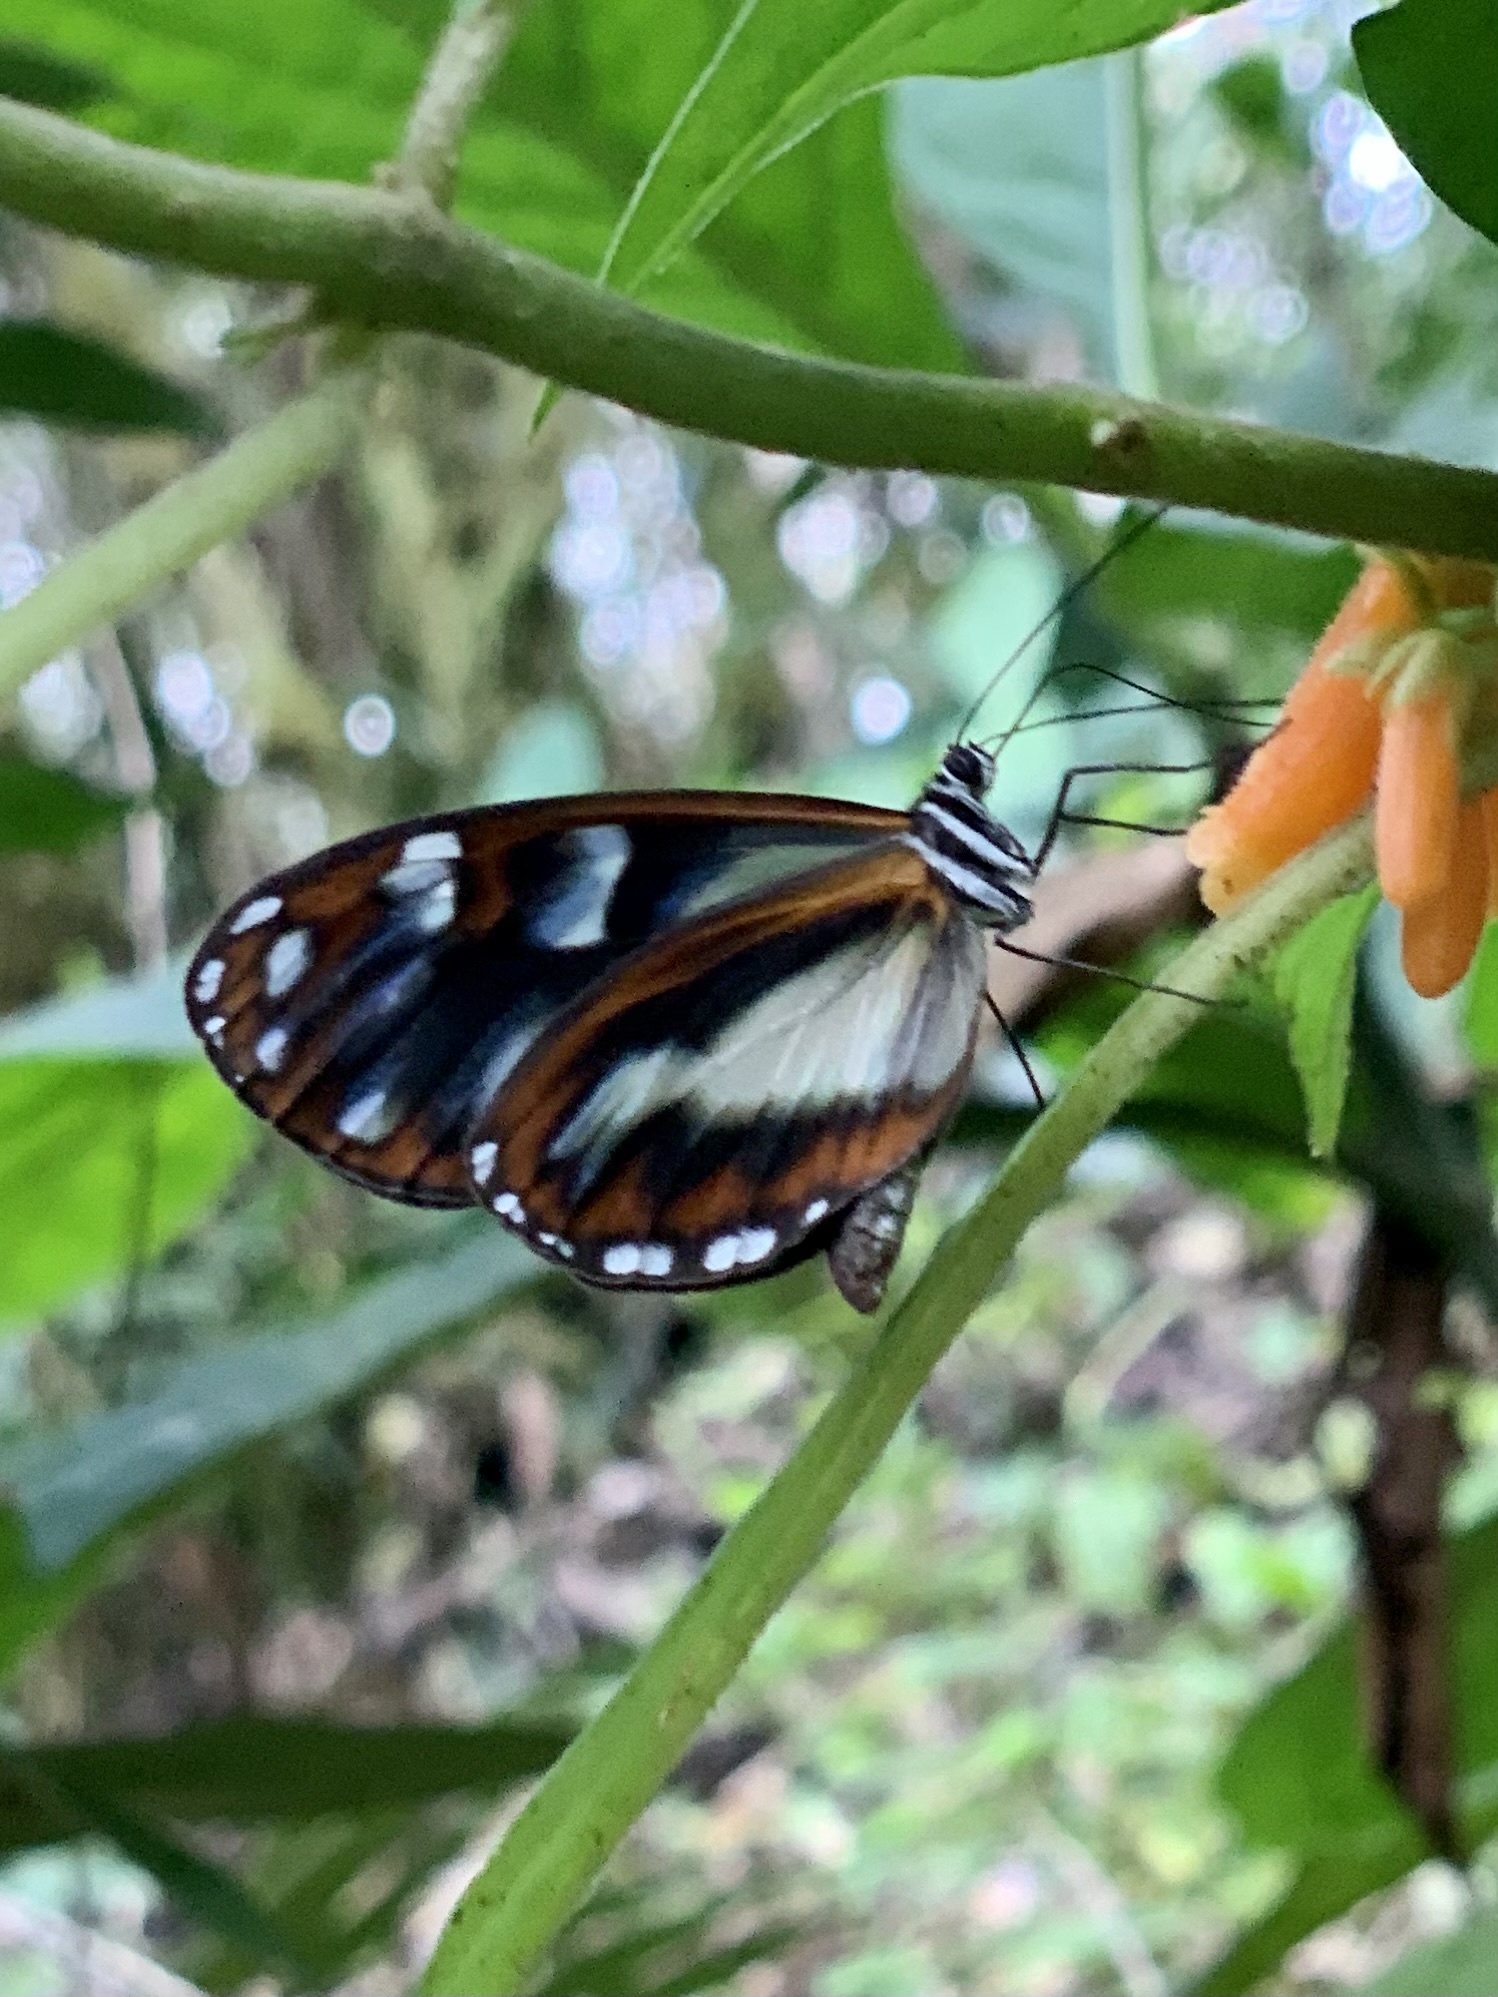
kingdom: Animalia
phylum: Arthropoda
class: Insecta
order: Lepidoptera
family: Nymphalidae
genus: Oleria
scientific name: Oleria radina
